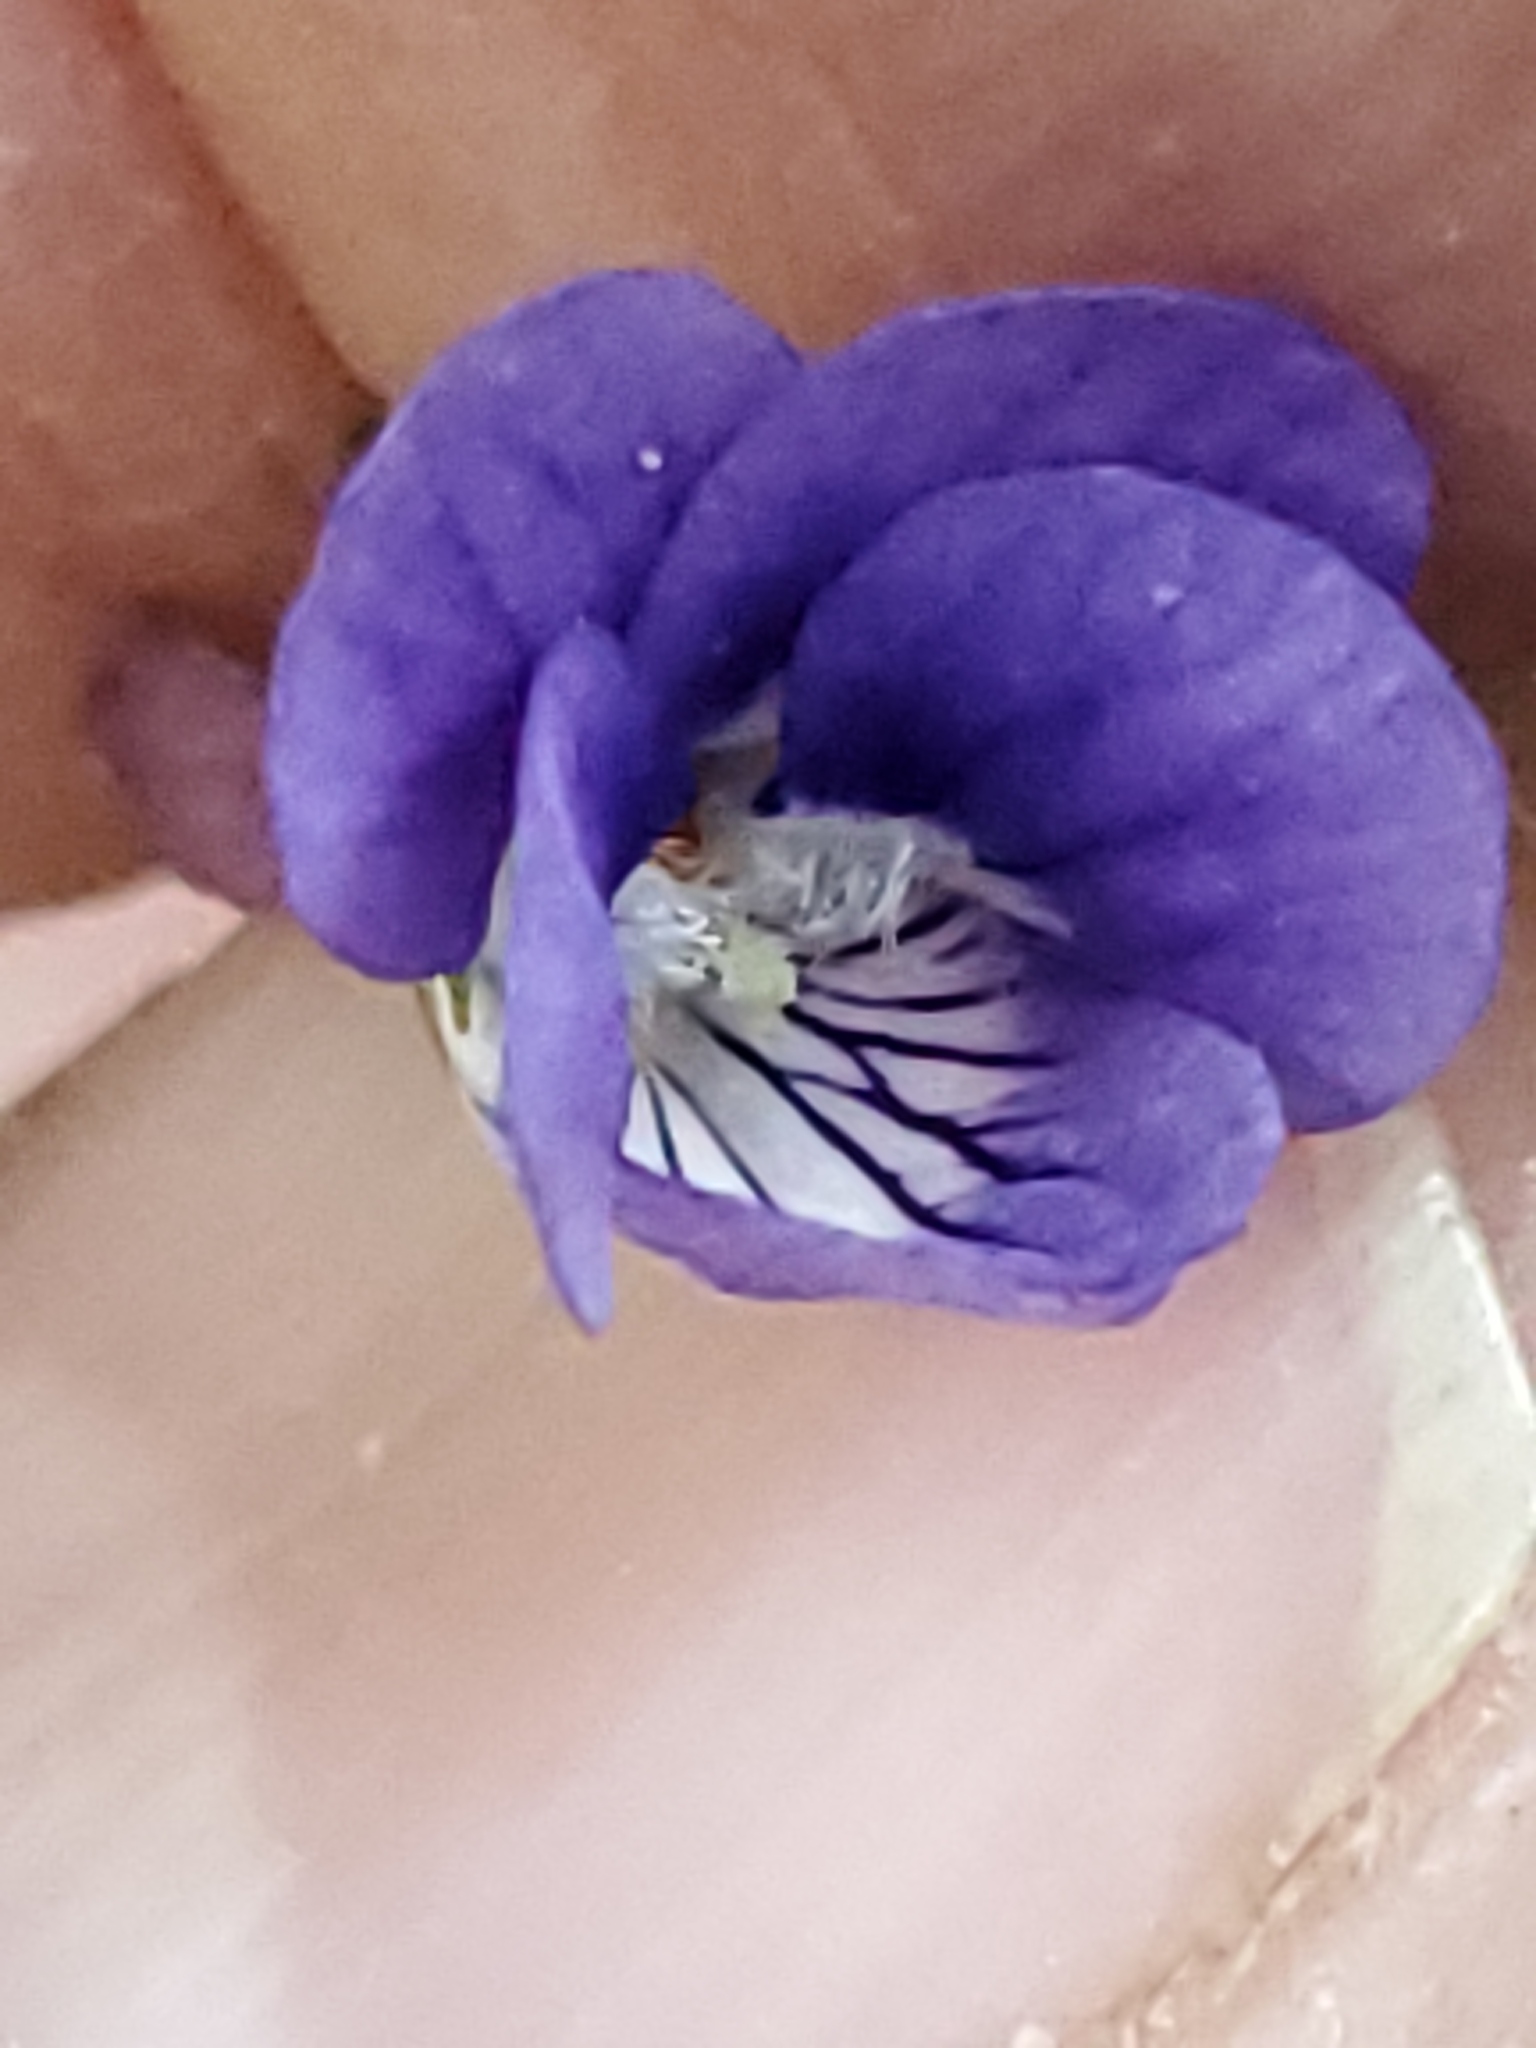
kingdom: Plantae
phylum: Tracheophyta
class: Magnoliopsida
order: Malpighiales
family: Violaceae
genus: Viola
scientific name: Viola adunca
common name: Sand violet
